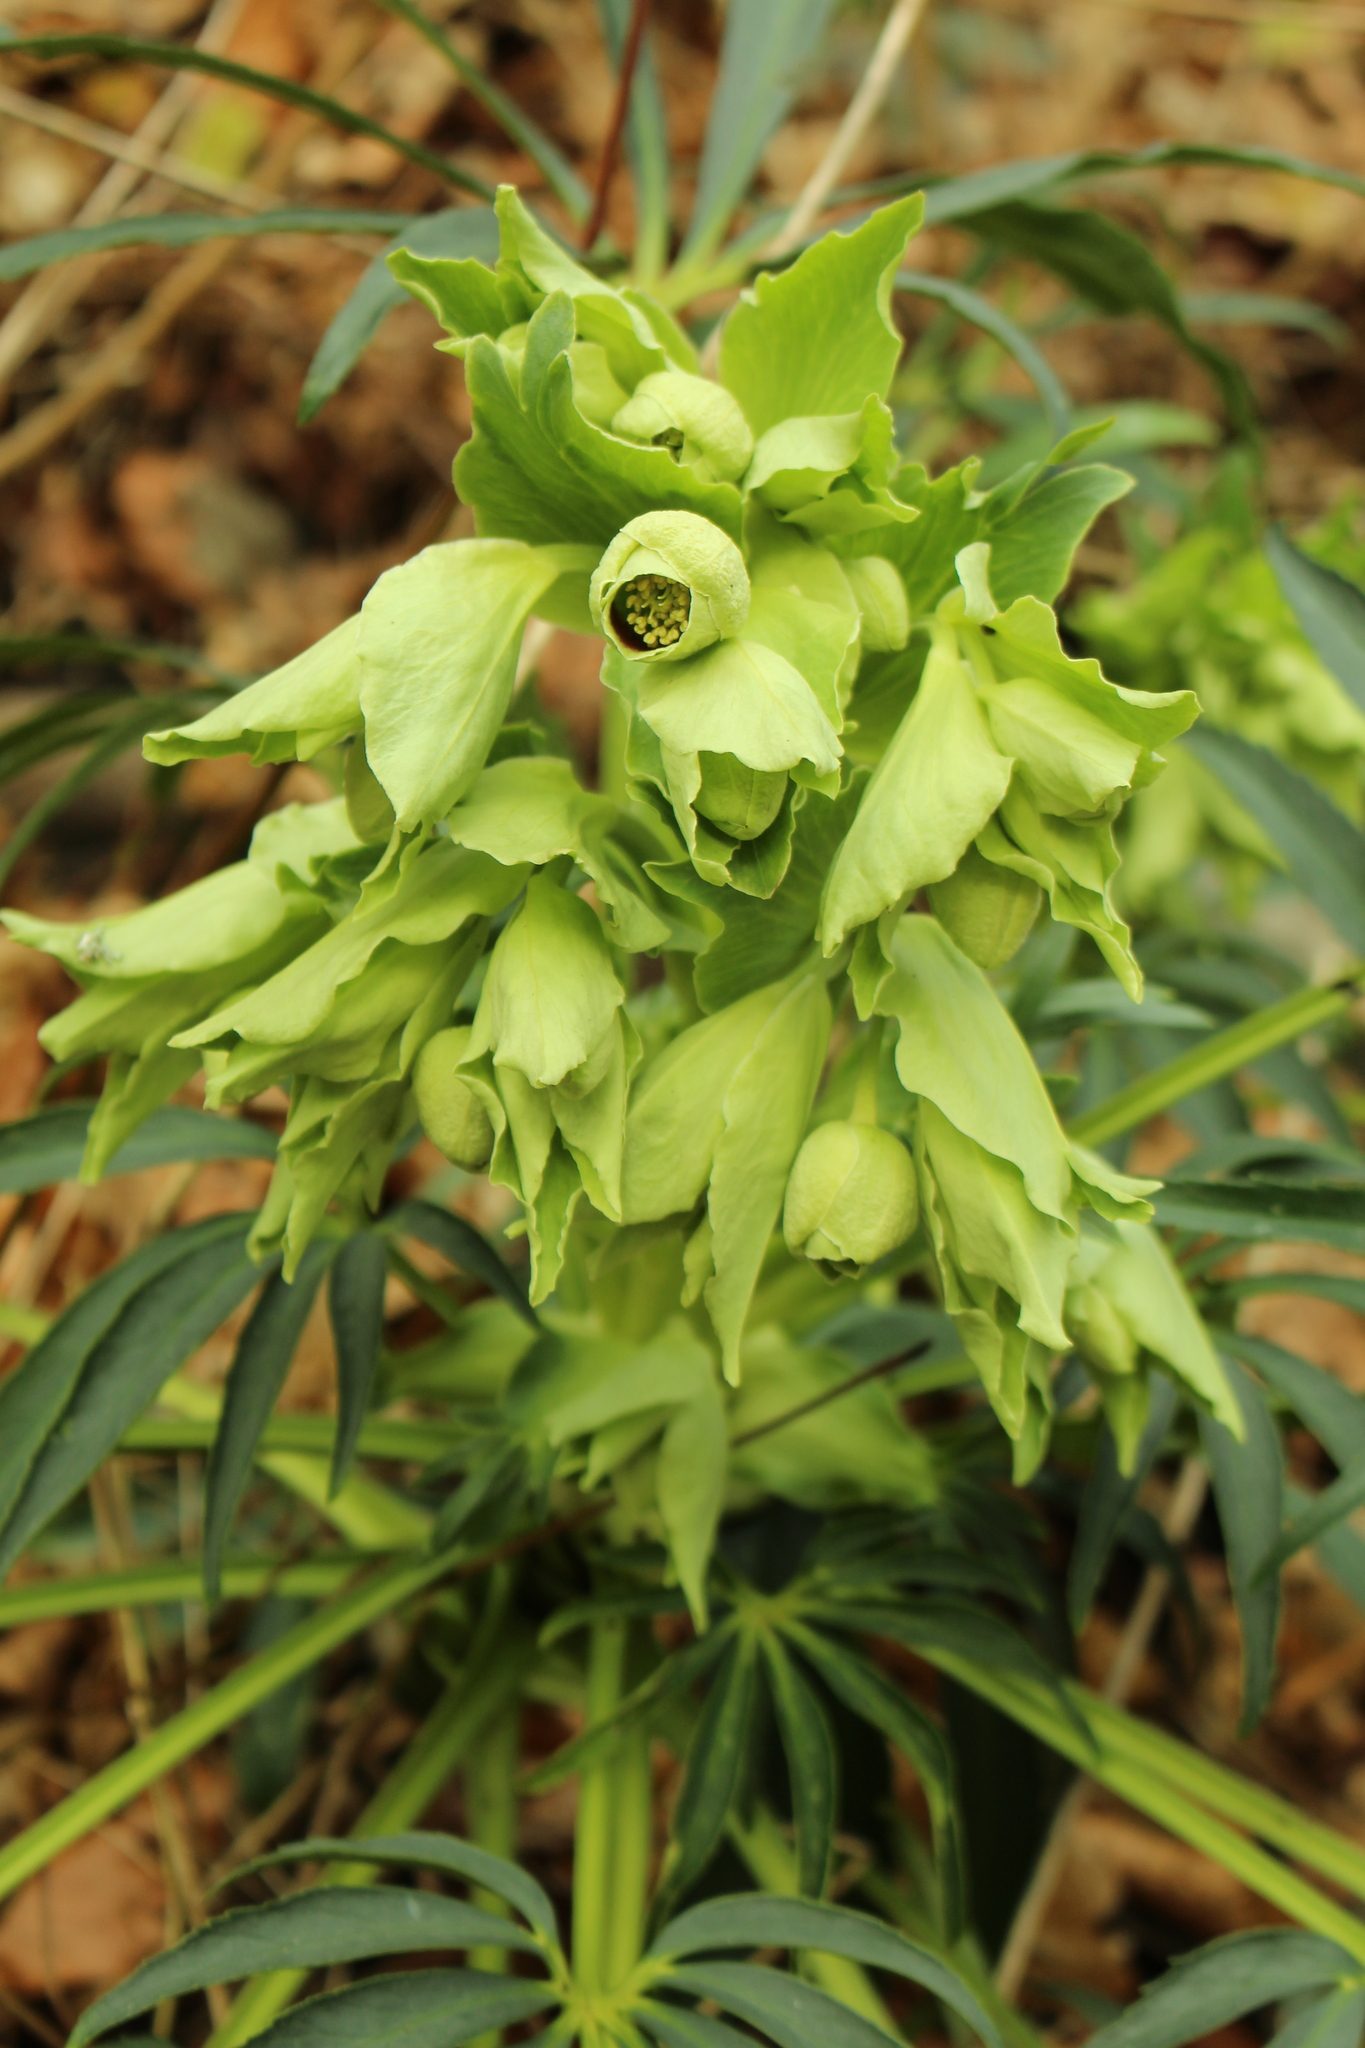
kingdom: Plantae
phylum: Tracheophyta
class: Magnoliopsida
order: Ranunculales
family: Ranunculaceae
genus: Helleborus
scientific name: Helleborus foetidus
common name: Stinking hellebore
